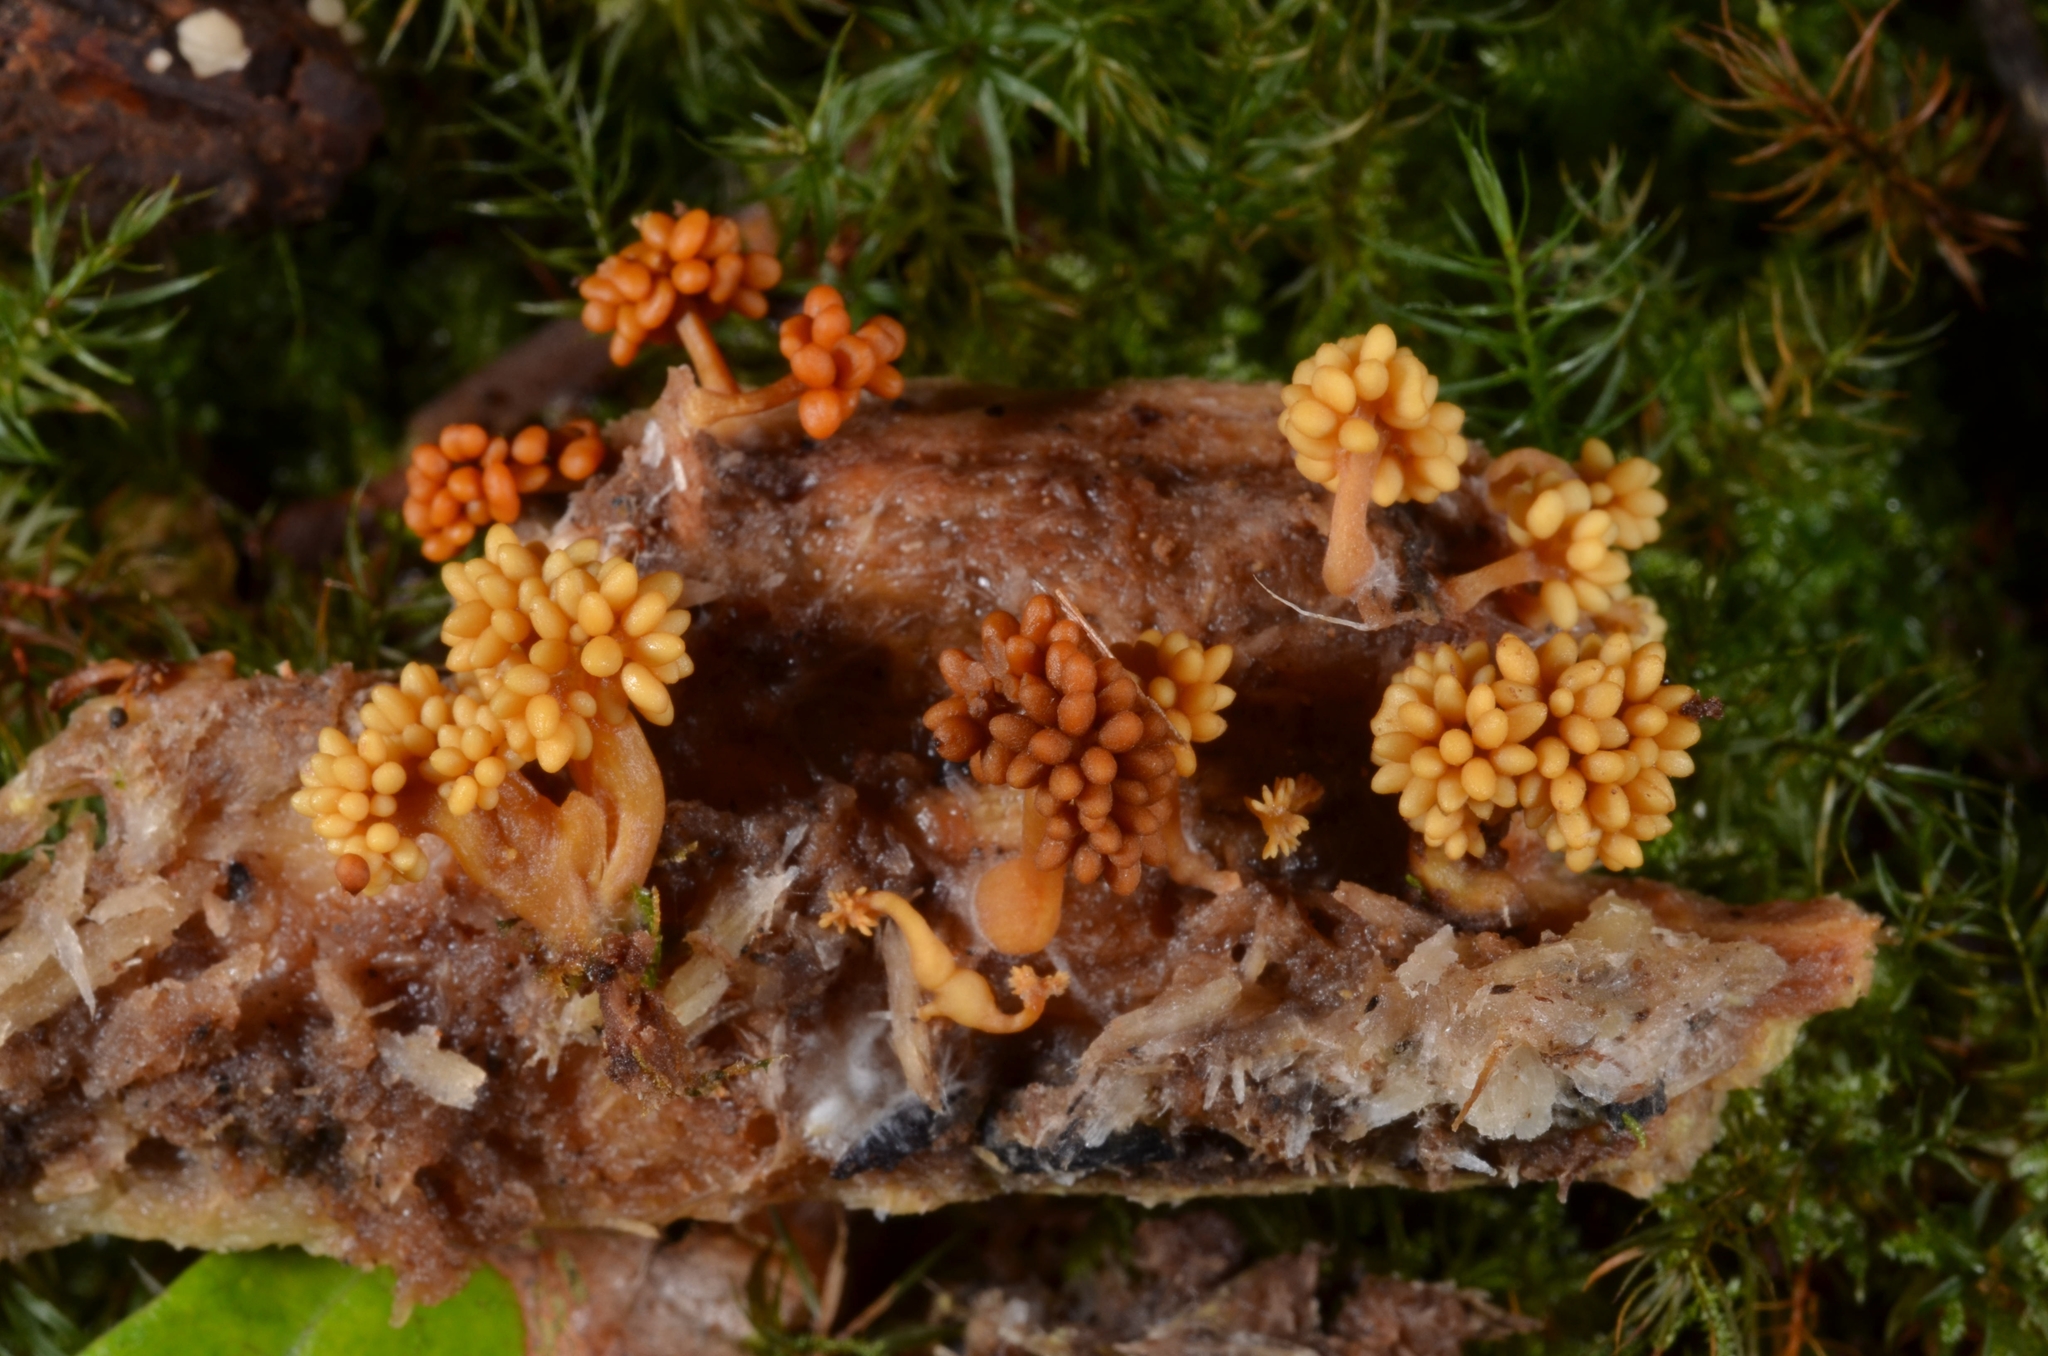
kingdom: Fungi
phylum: Basidiomycota
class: Agaricomycetes
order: Agaricales
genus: Synnematomyces
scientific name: Synnematomyces capitatus
